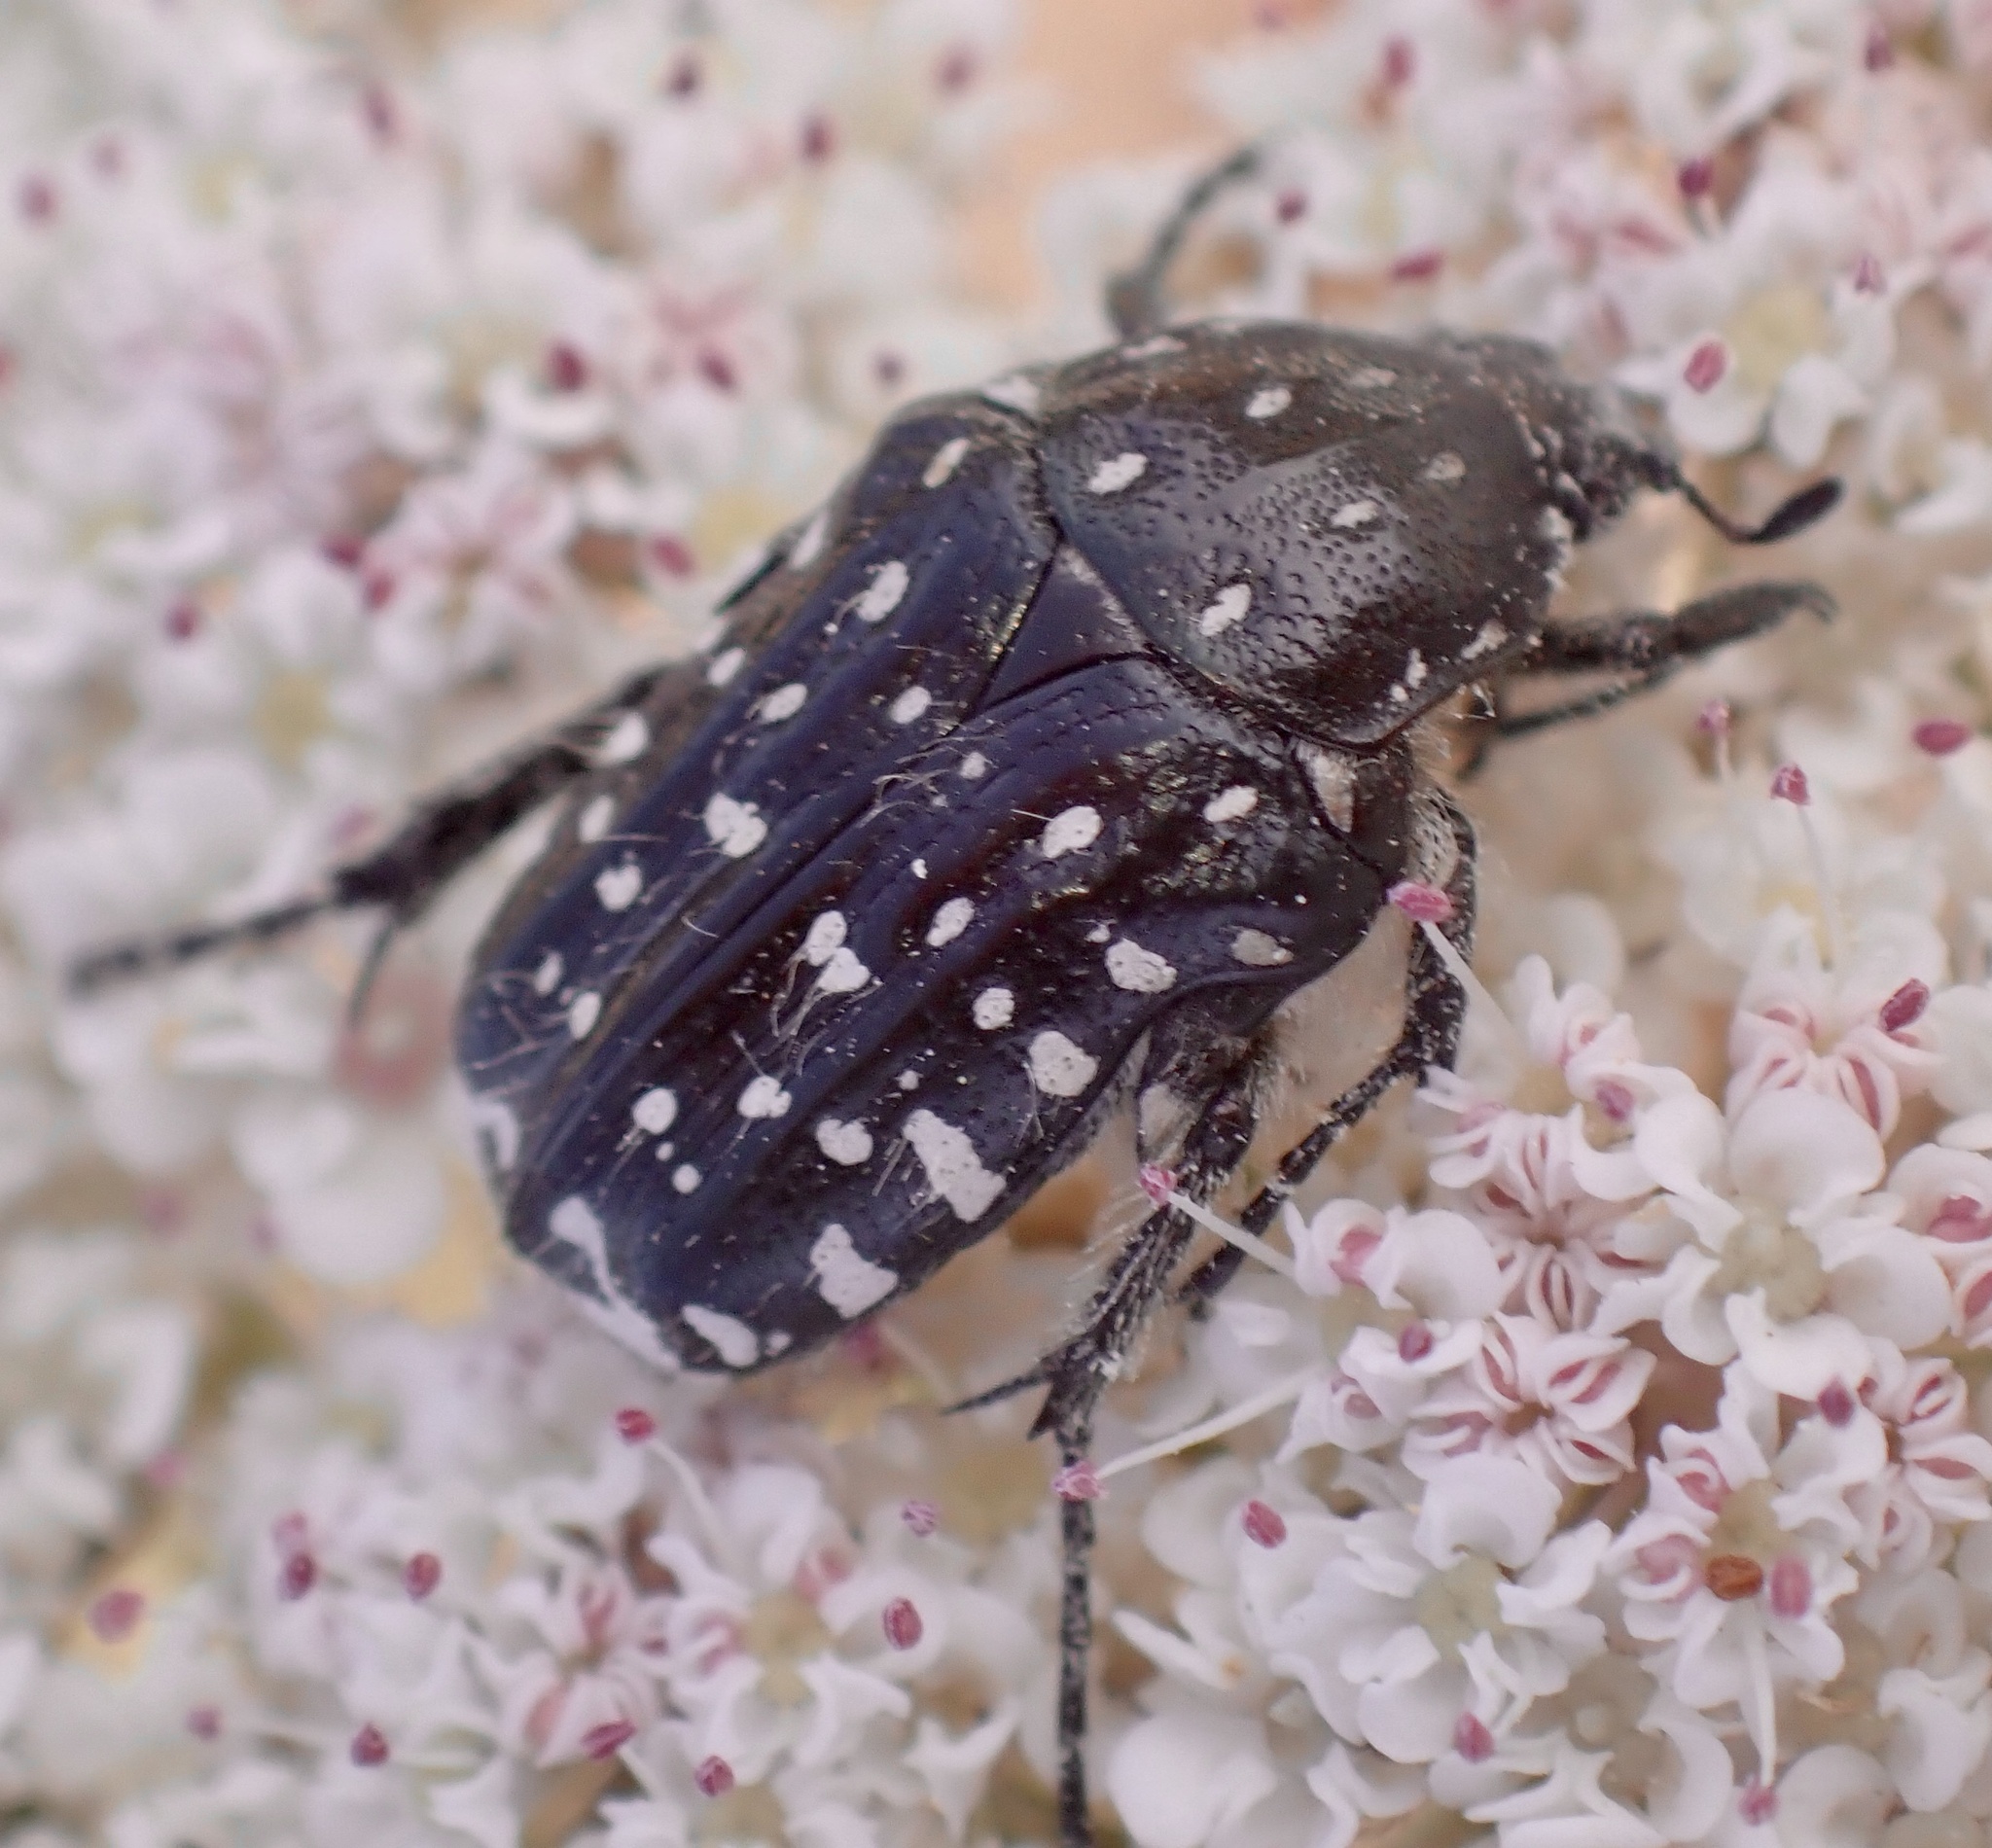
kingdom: Animalia
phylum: Arthropoda
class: Insecta
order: Coleoptera
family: Scarabaeidae
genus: Oxythyrea
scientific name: Oxythyrea funesta
